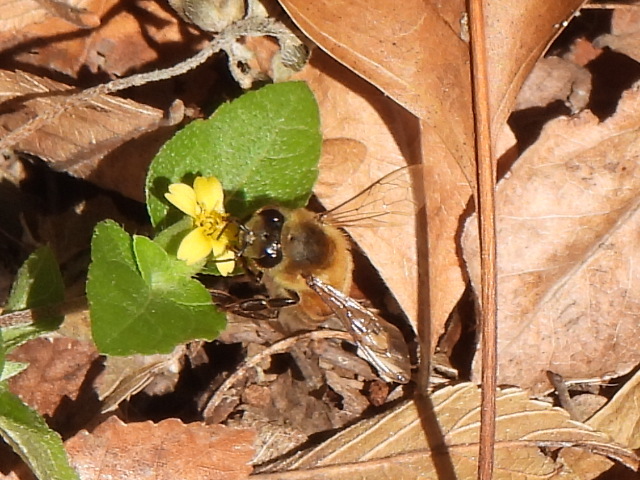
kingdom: Animalia
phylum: Arthropoda
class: Insecta
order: Hymenoptera
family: Apidae
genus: Apis
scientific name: Apis mellifera
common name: Honey bee
